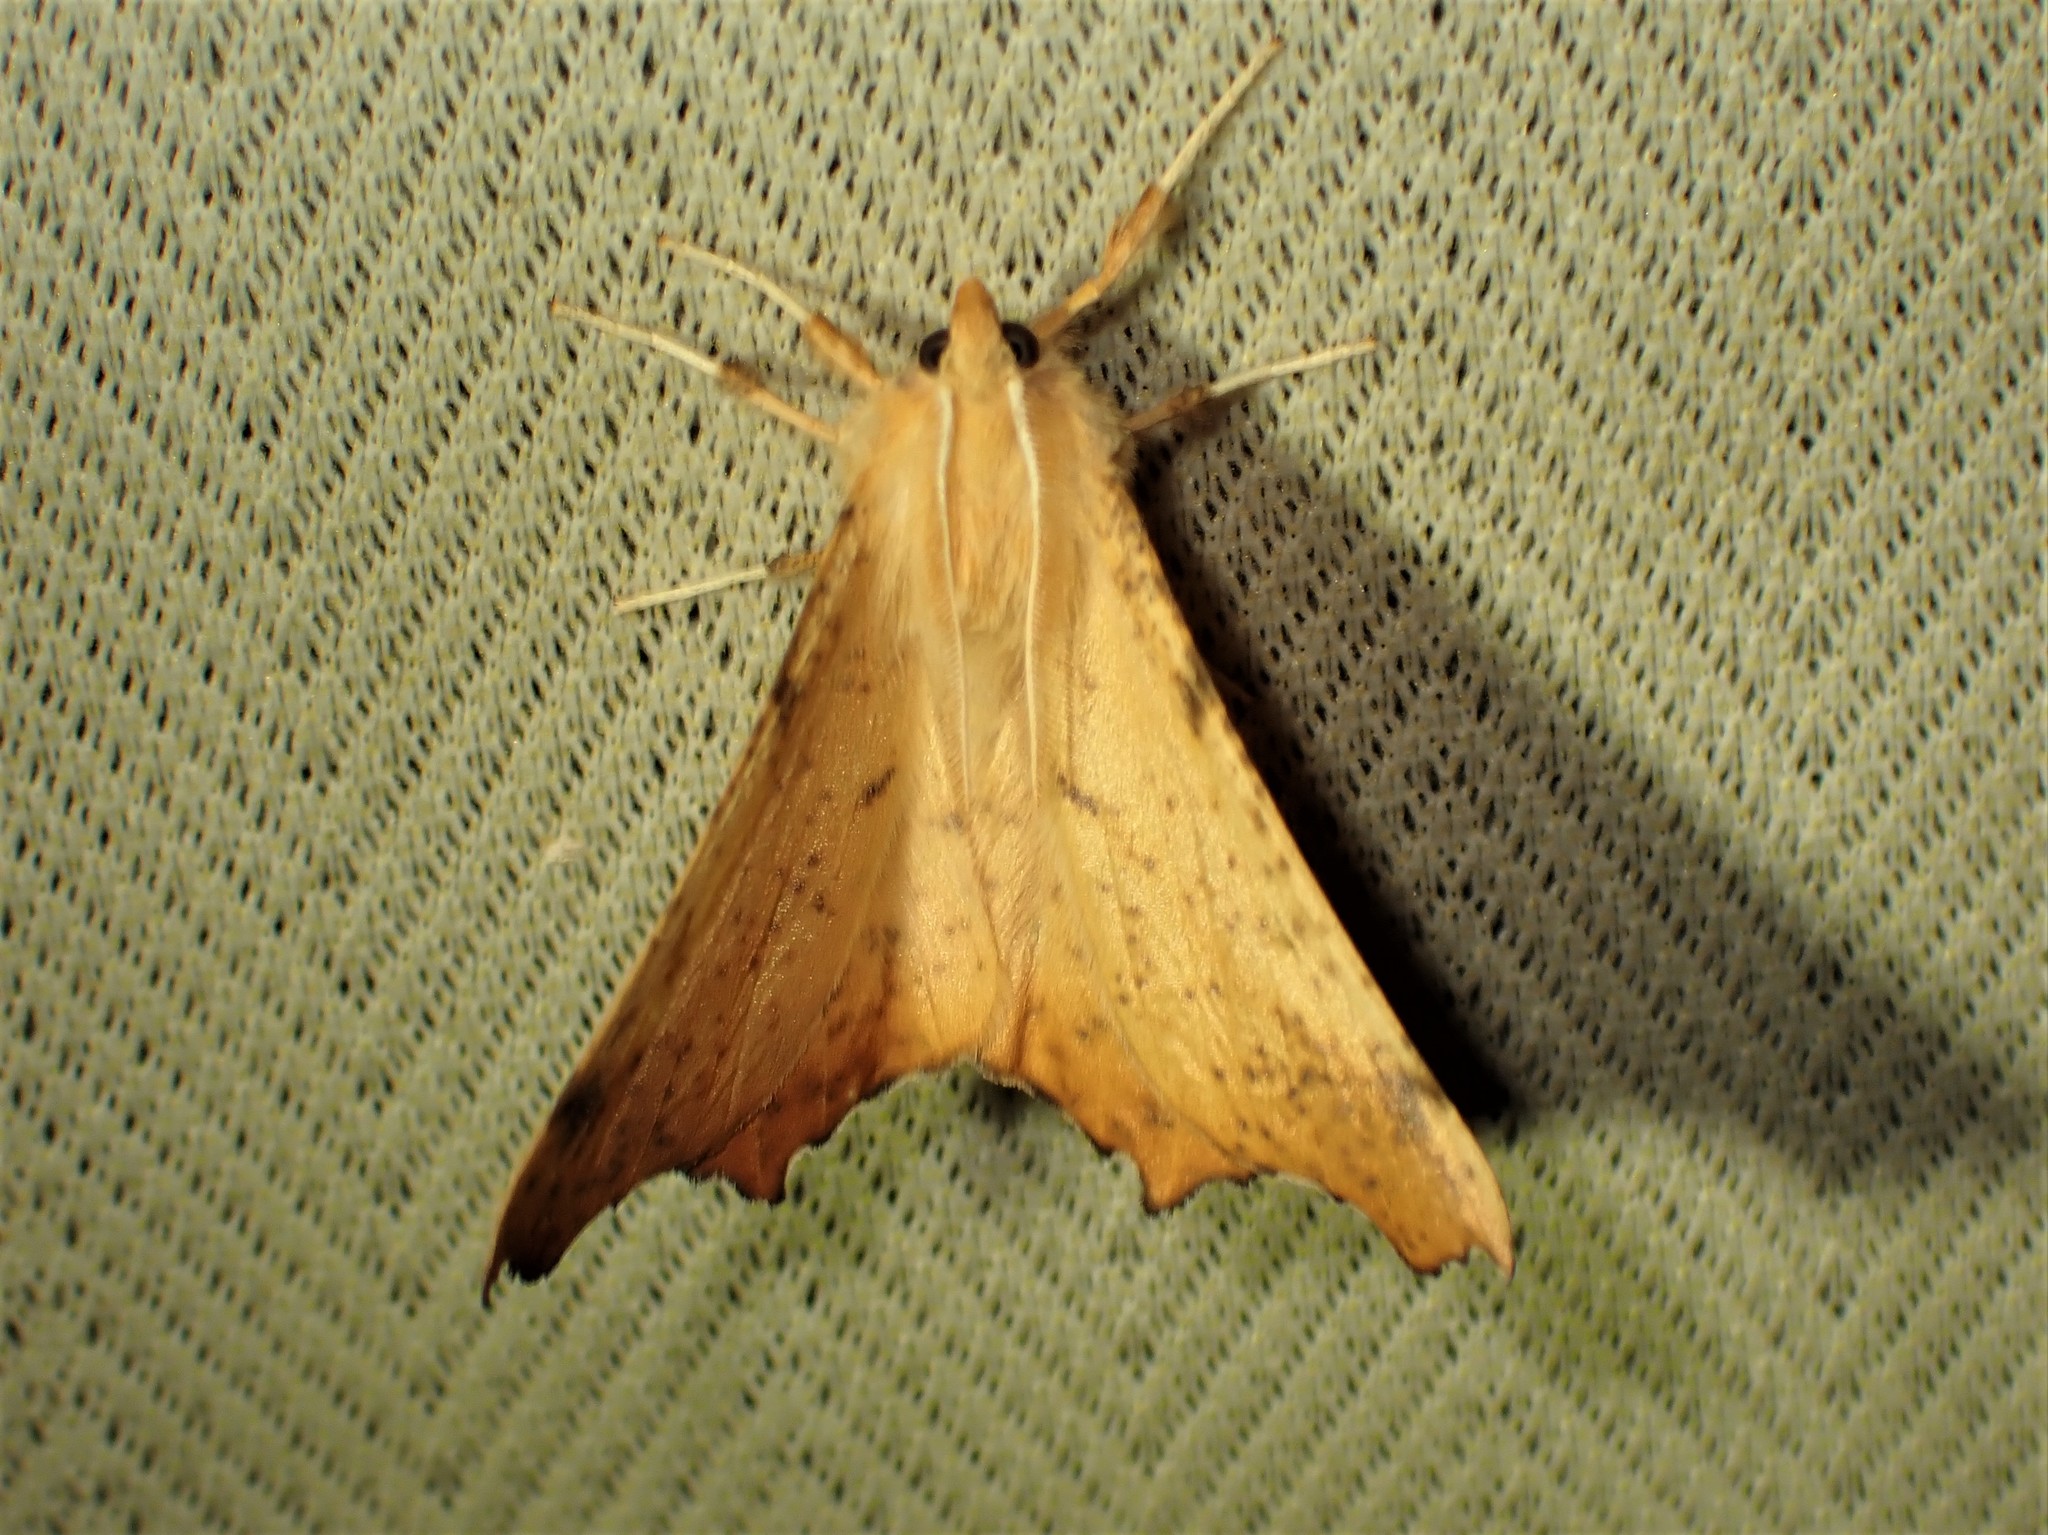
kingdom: Animalia
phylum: Arthropoda
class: Insecta
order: Lepidoptera
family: Geometridae
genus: Ennomos
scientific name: Ennomos magnaria
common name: Maple spanworm
